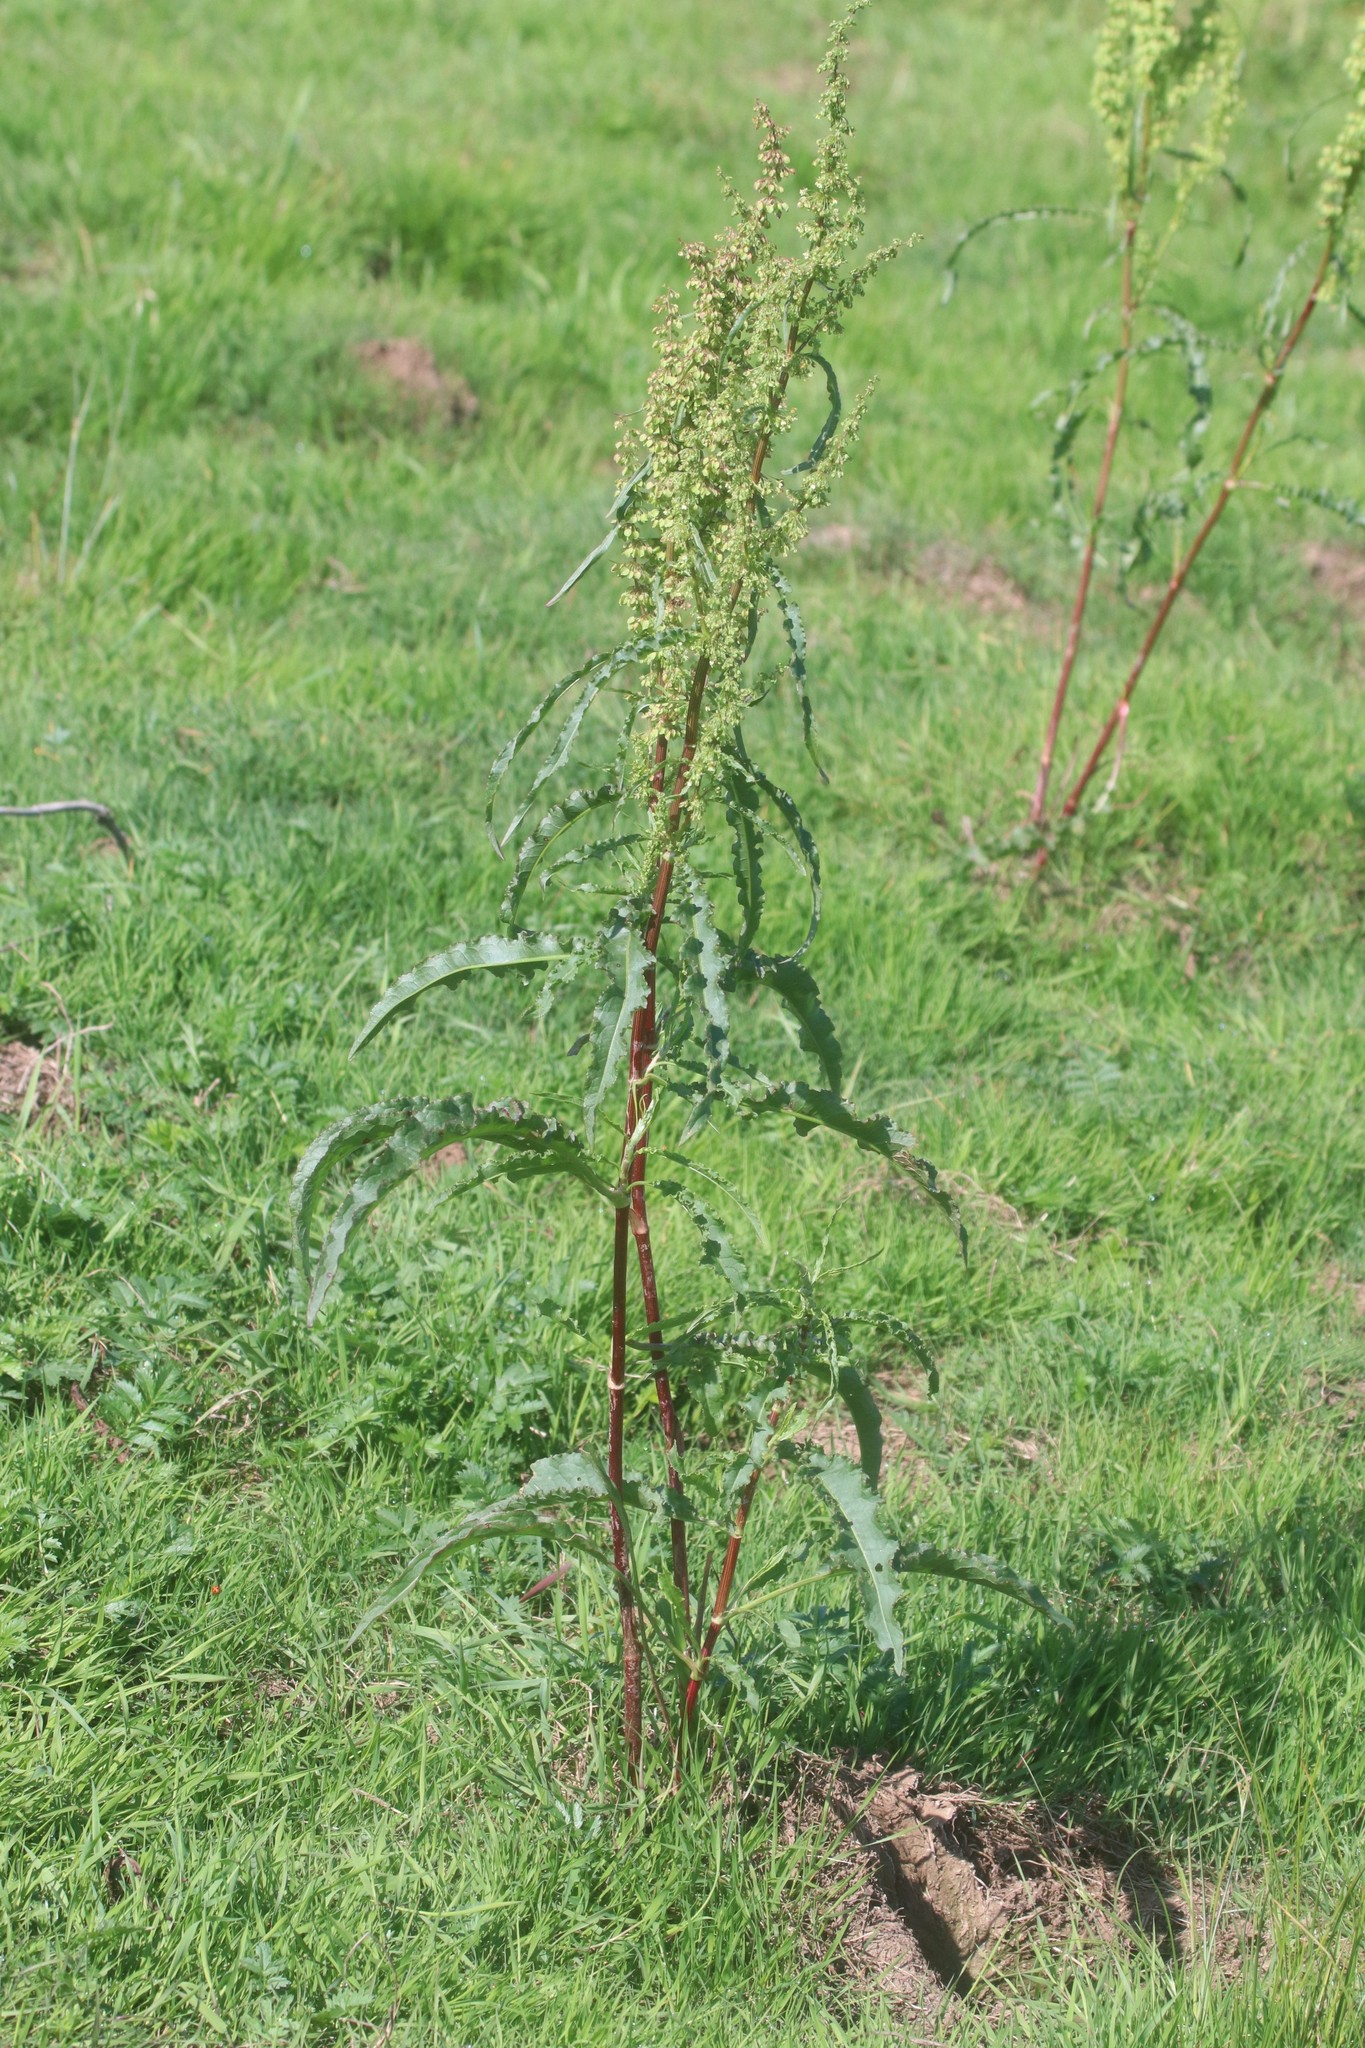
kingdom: Plantae
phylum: Tracheophyta
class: Magnoliopsida
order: Caryophyllales
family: Polygonaceae
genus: Rumex
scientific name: Rumex crispus
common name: Curled dock
